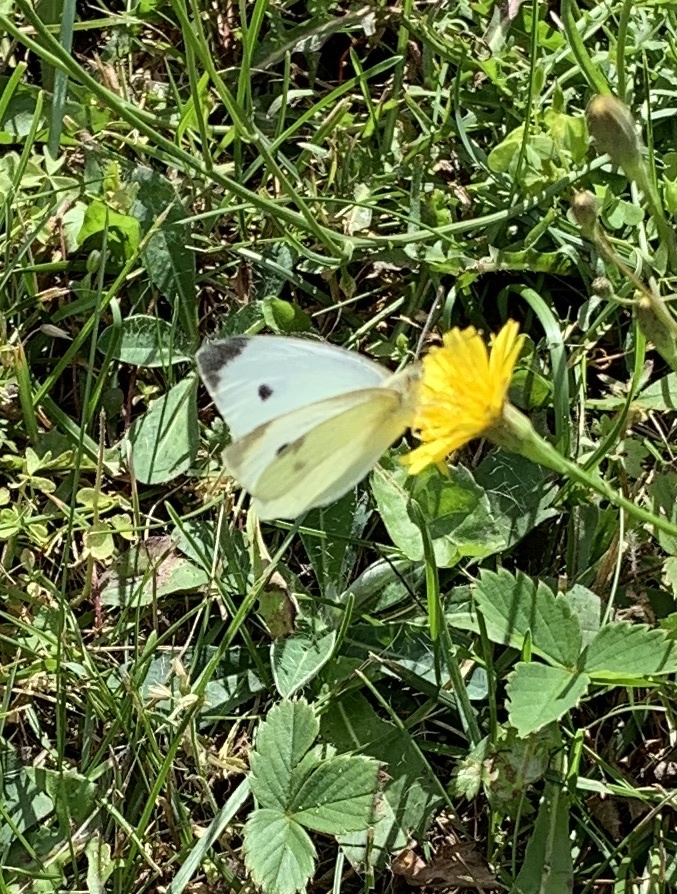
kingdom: Animalia
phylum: Arthropoda
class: Insecta
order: Lepidoptera
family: Pieridae
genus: Pieris
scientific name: Pieris rapae
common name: Small white
